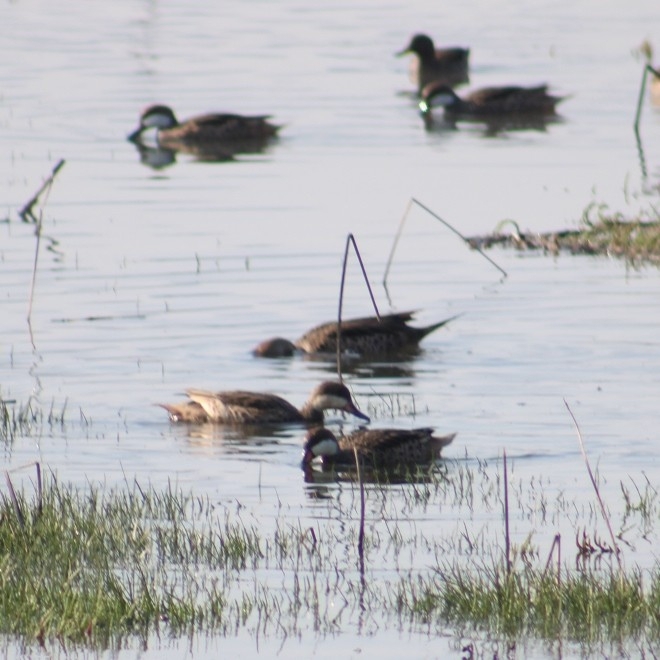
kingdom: Animalia
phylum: Chordata
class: Aves
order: Anseriformes
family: Anatidae
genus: Anas
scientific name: Anas bahamensis
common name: White-cheeked pintail
